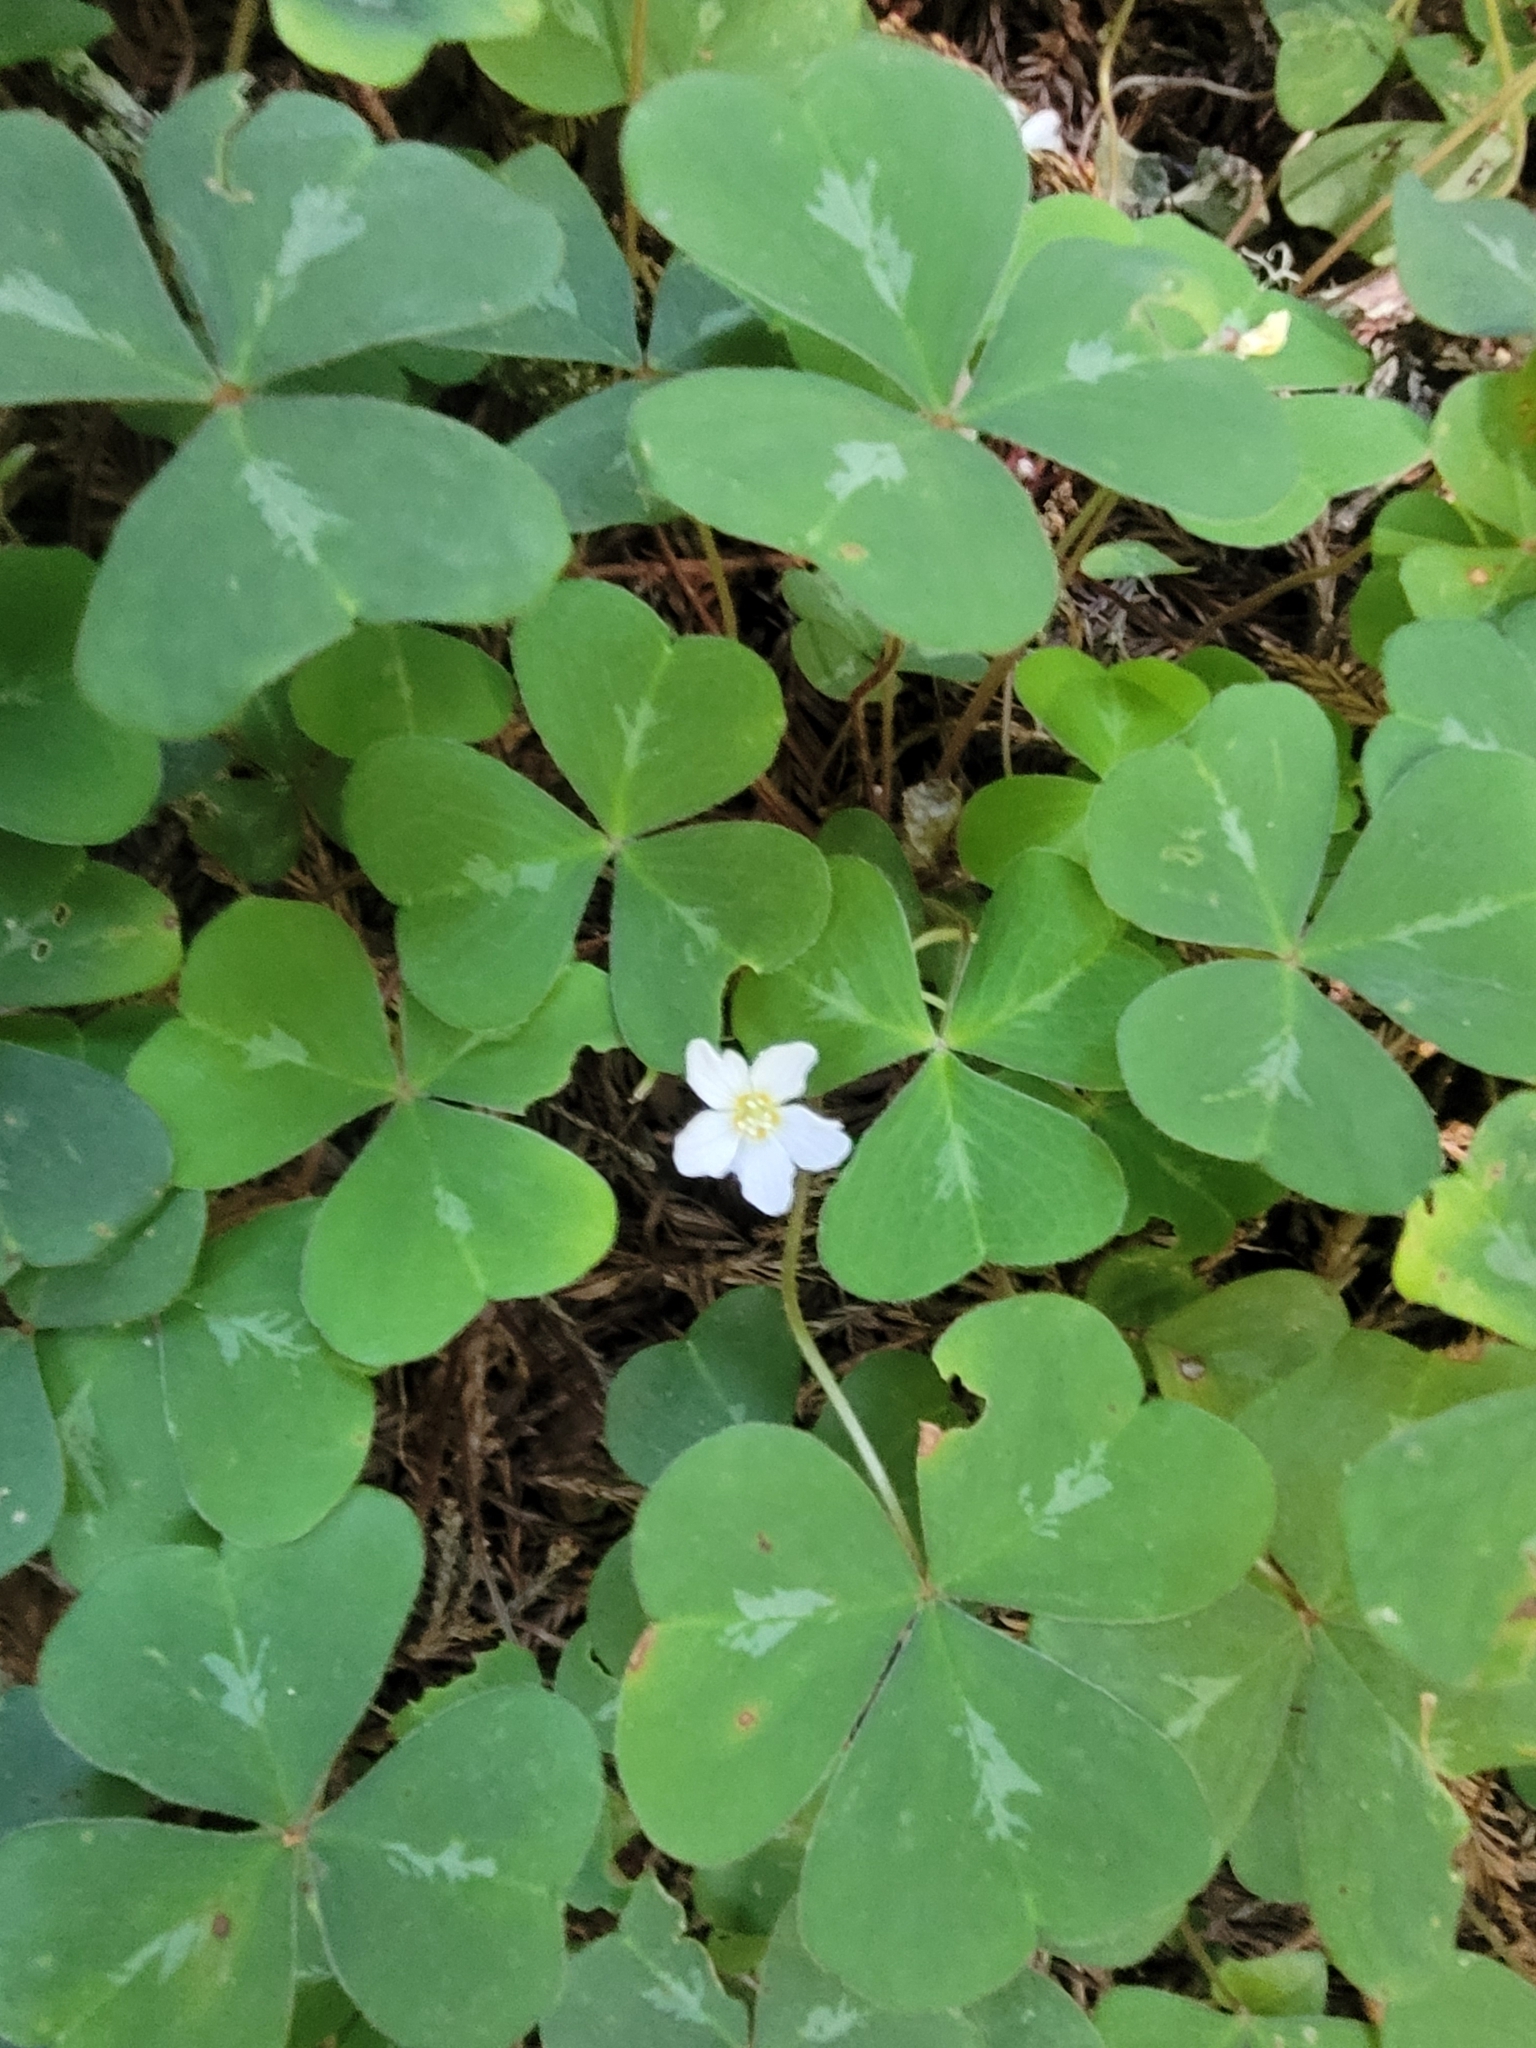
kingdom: Plantae
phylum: Tracheophyta
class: Magnoliopsida
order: Oxalidales
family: Oxalidaceae
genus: Oxalis
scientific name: Oxalis oregana
